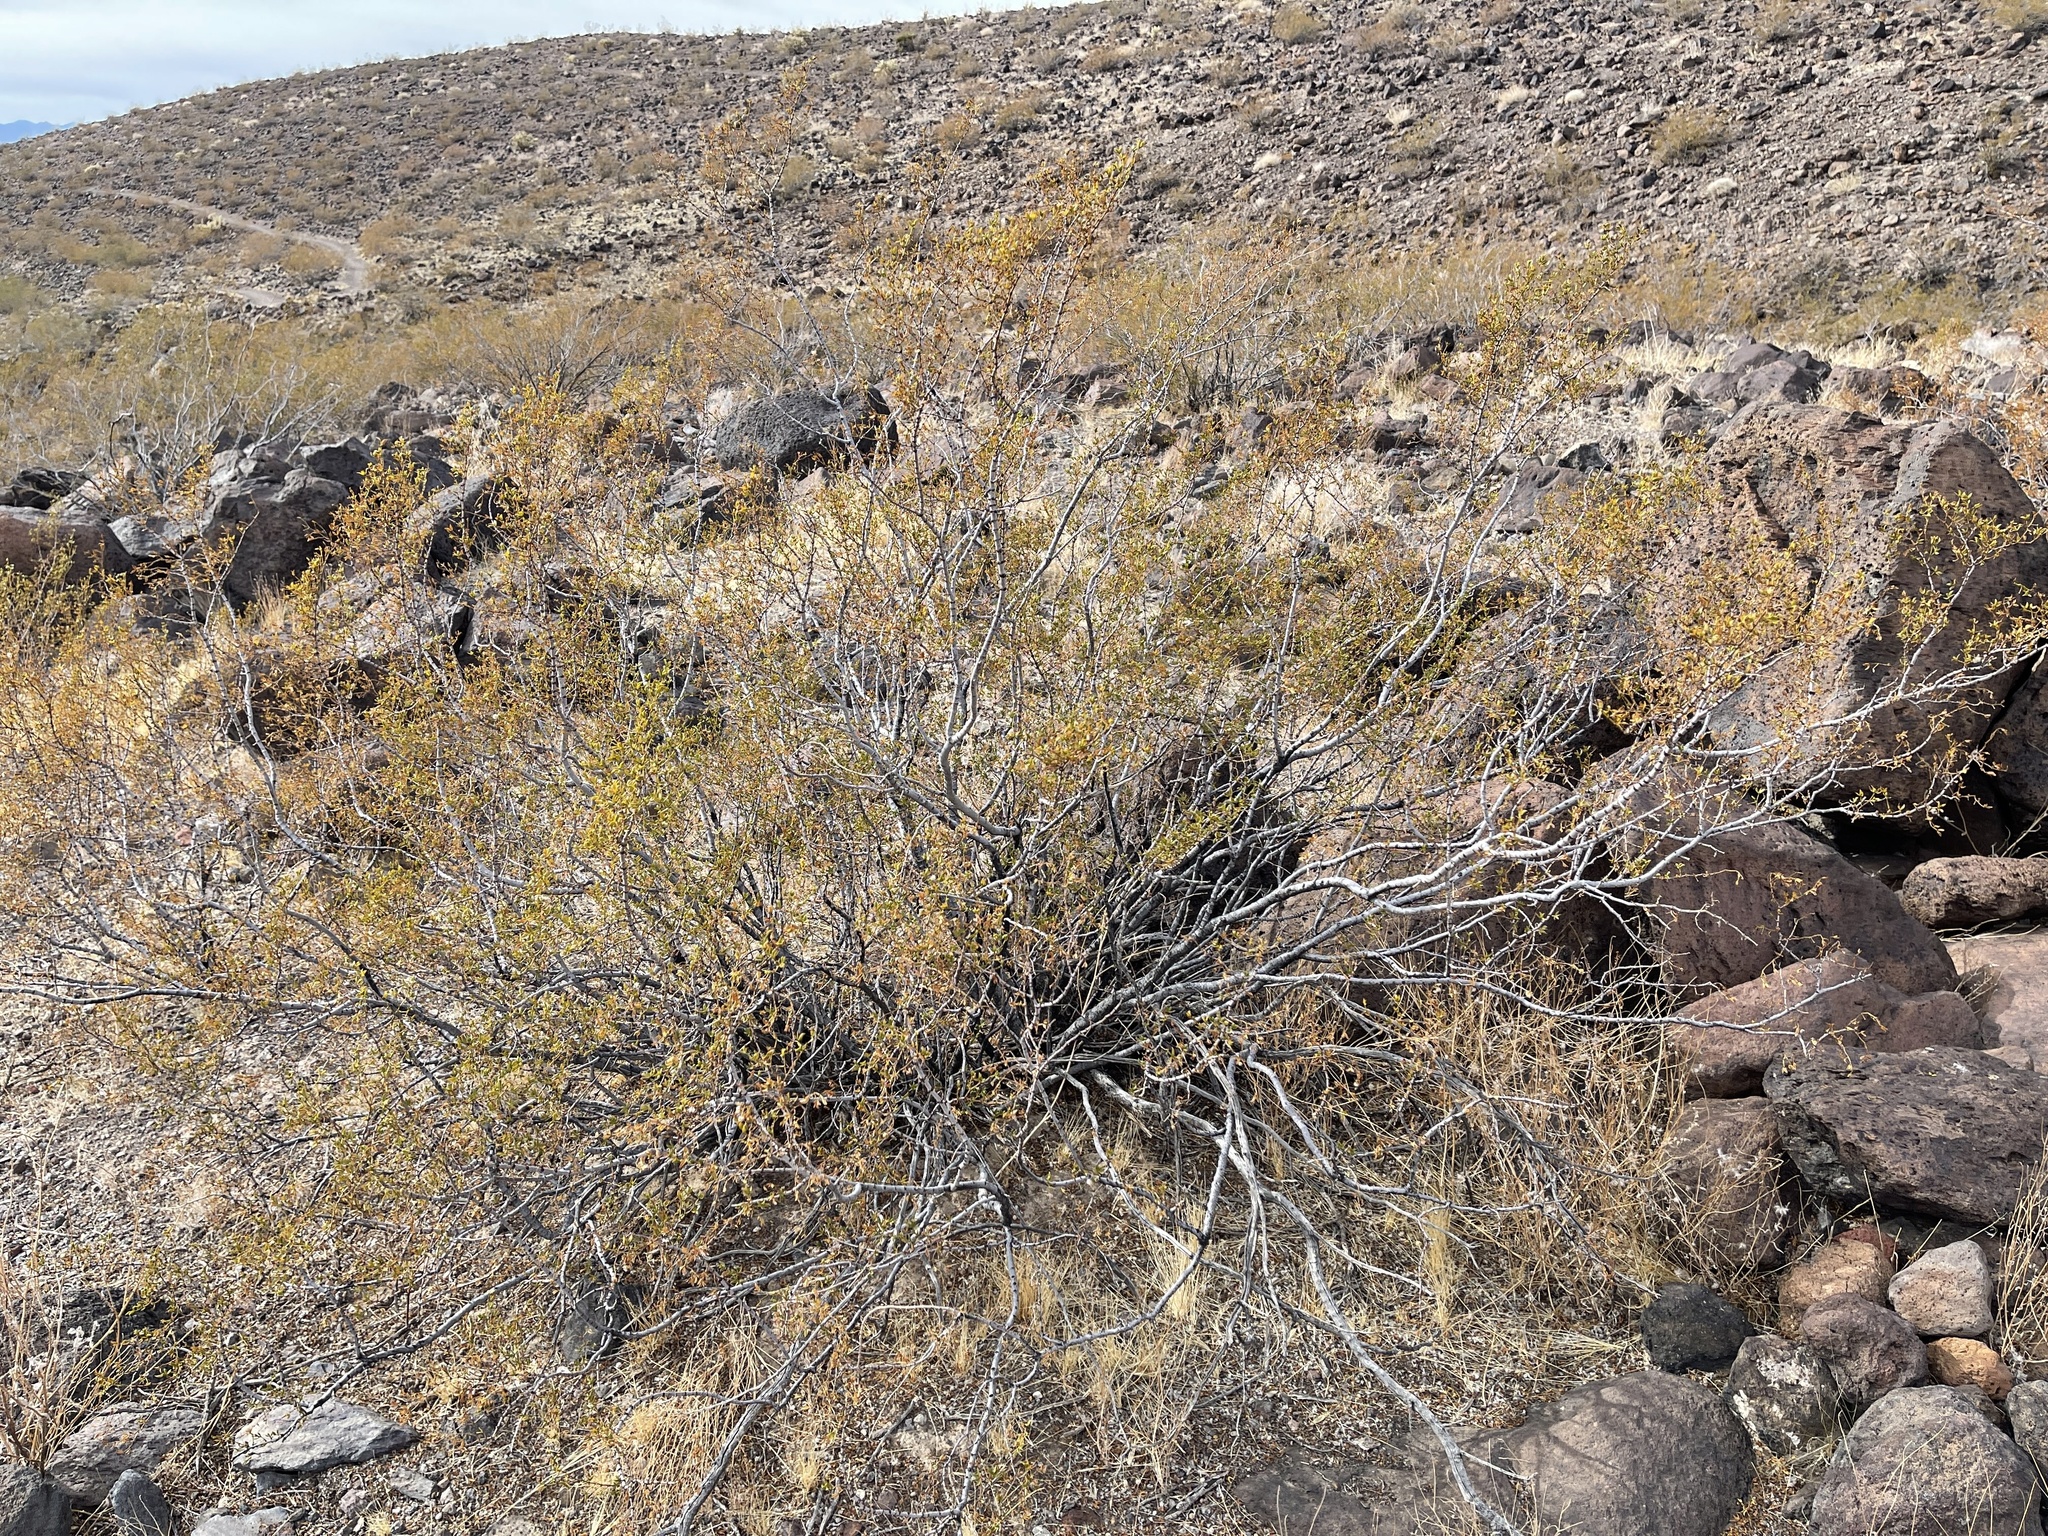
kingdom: Plantae
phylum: Tracheophyta
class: Magnoliopsida
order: Zygophyllales
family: Zygophyllaceae
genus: Larrea
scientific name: Larrea tridentata
